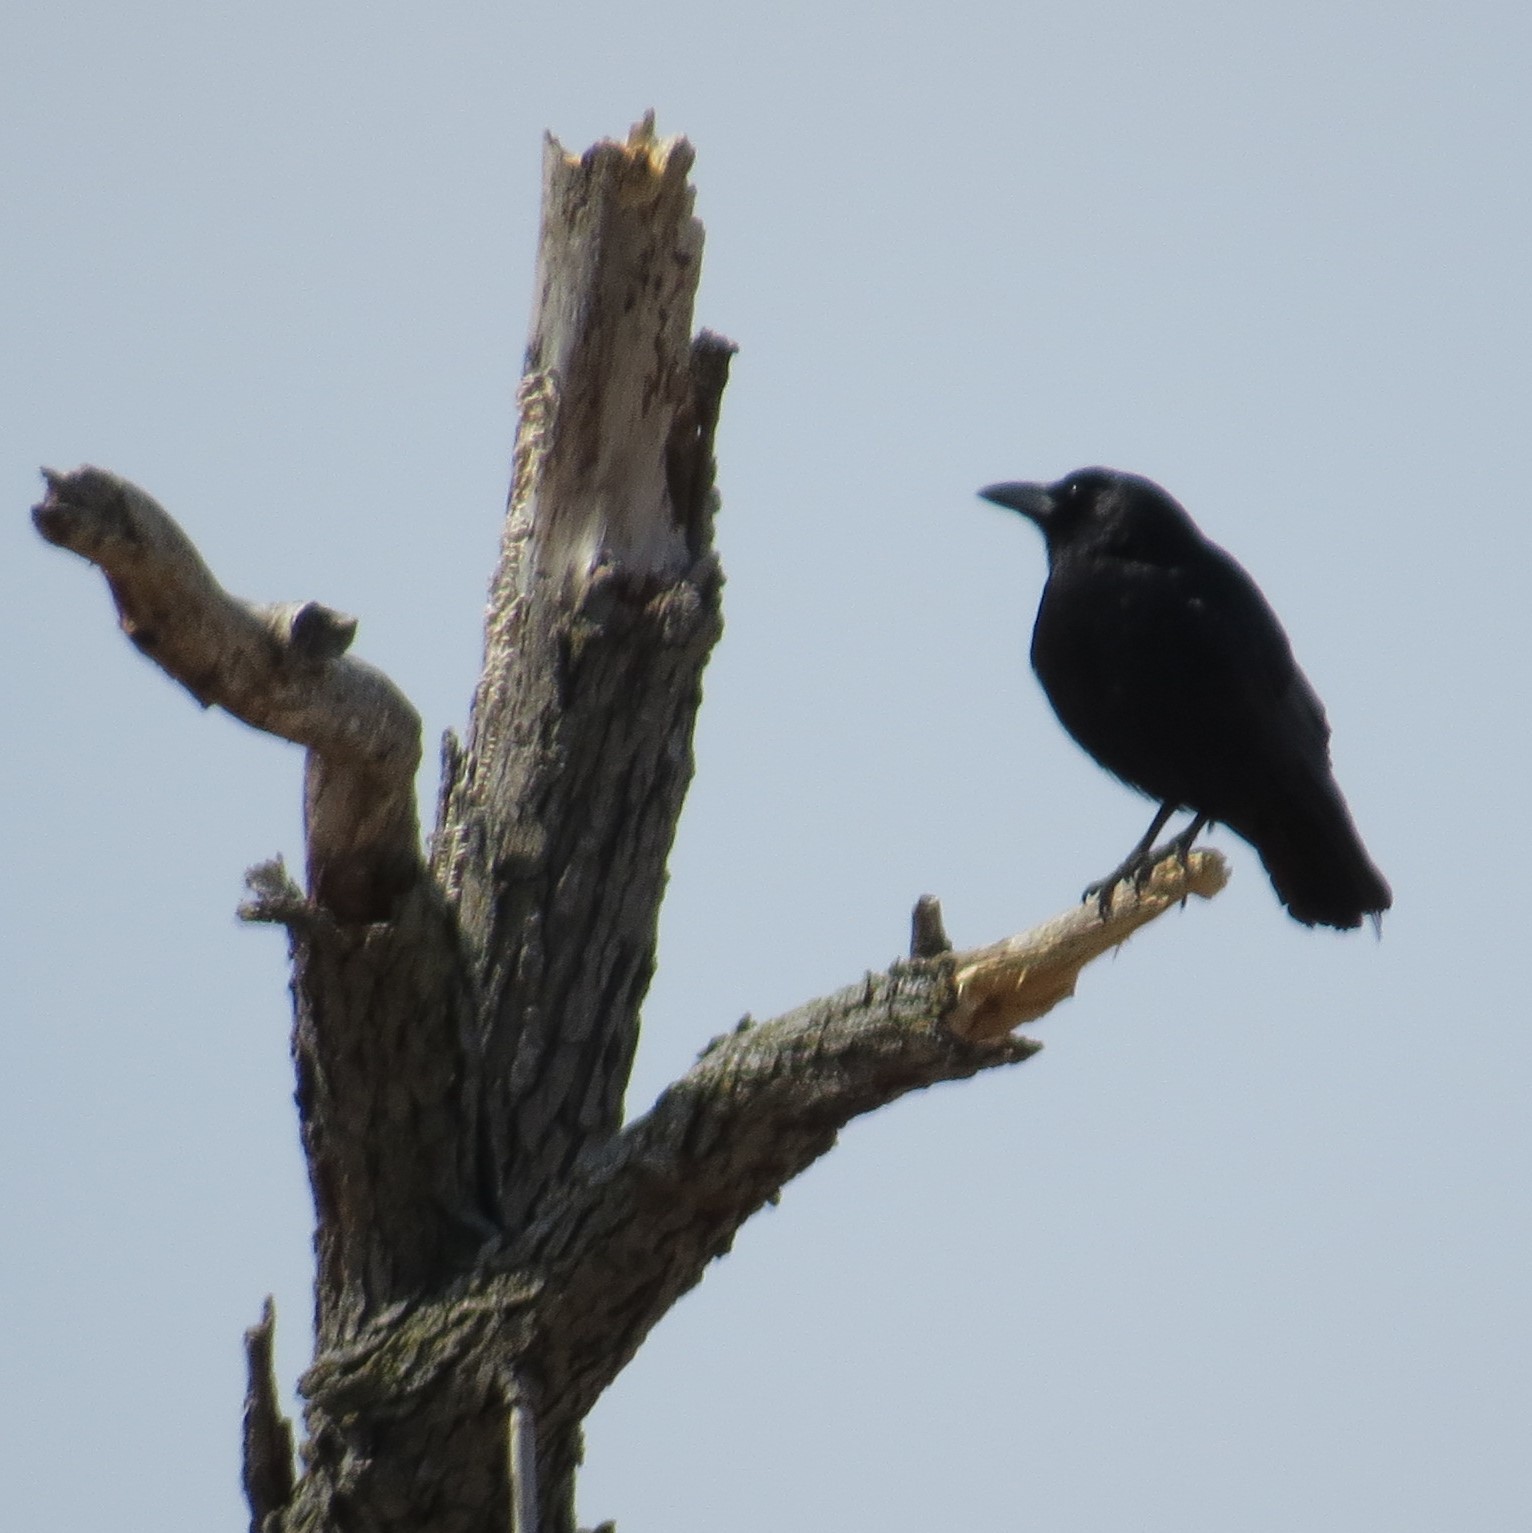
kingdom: Animalia
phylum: Chordata
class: Aves
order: Passeriformes
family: Corvidae
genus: Corvus
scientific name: Corvus brachyrhynchos
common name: American crow
